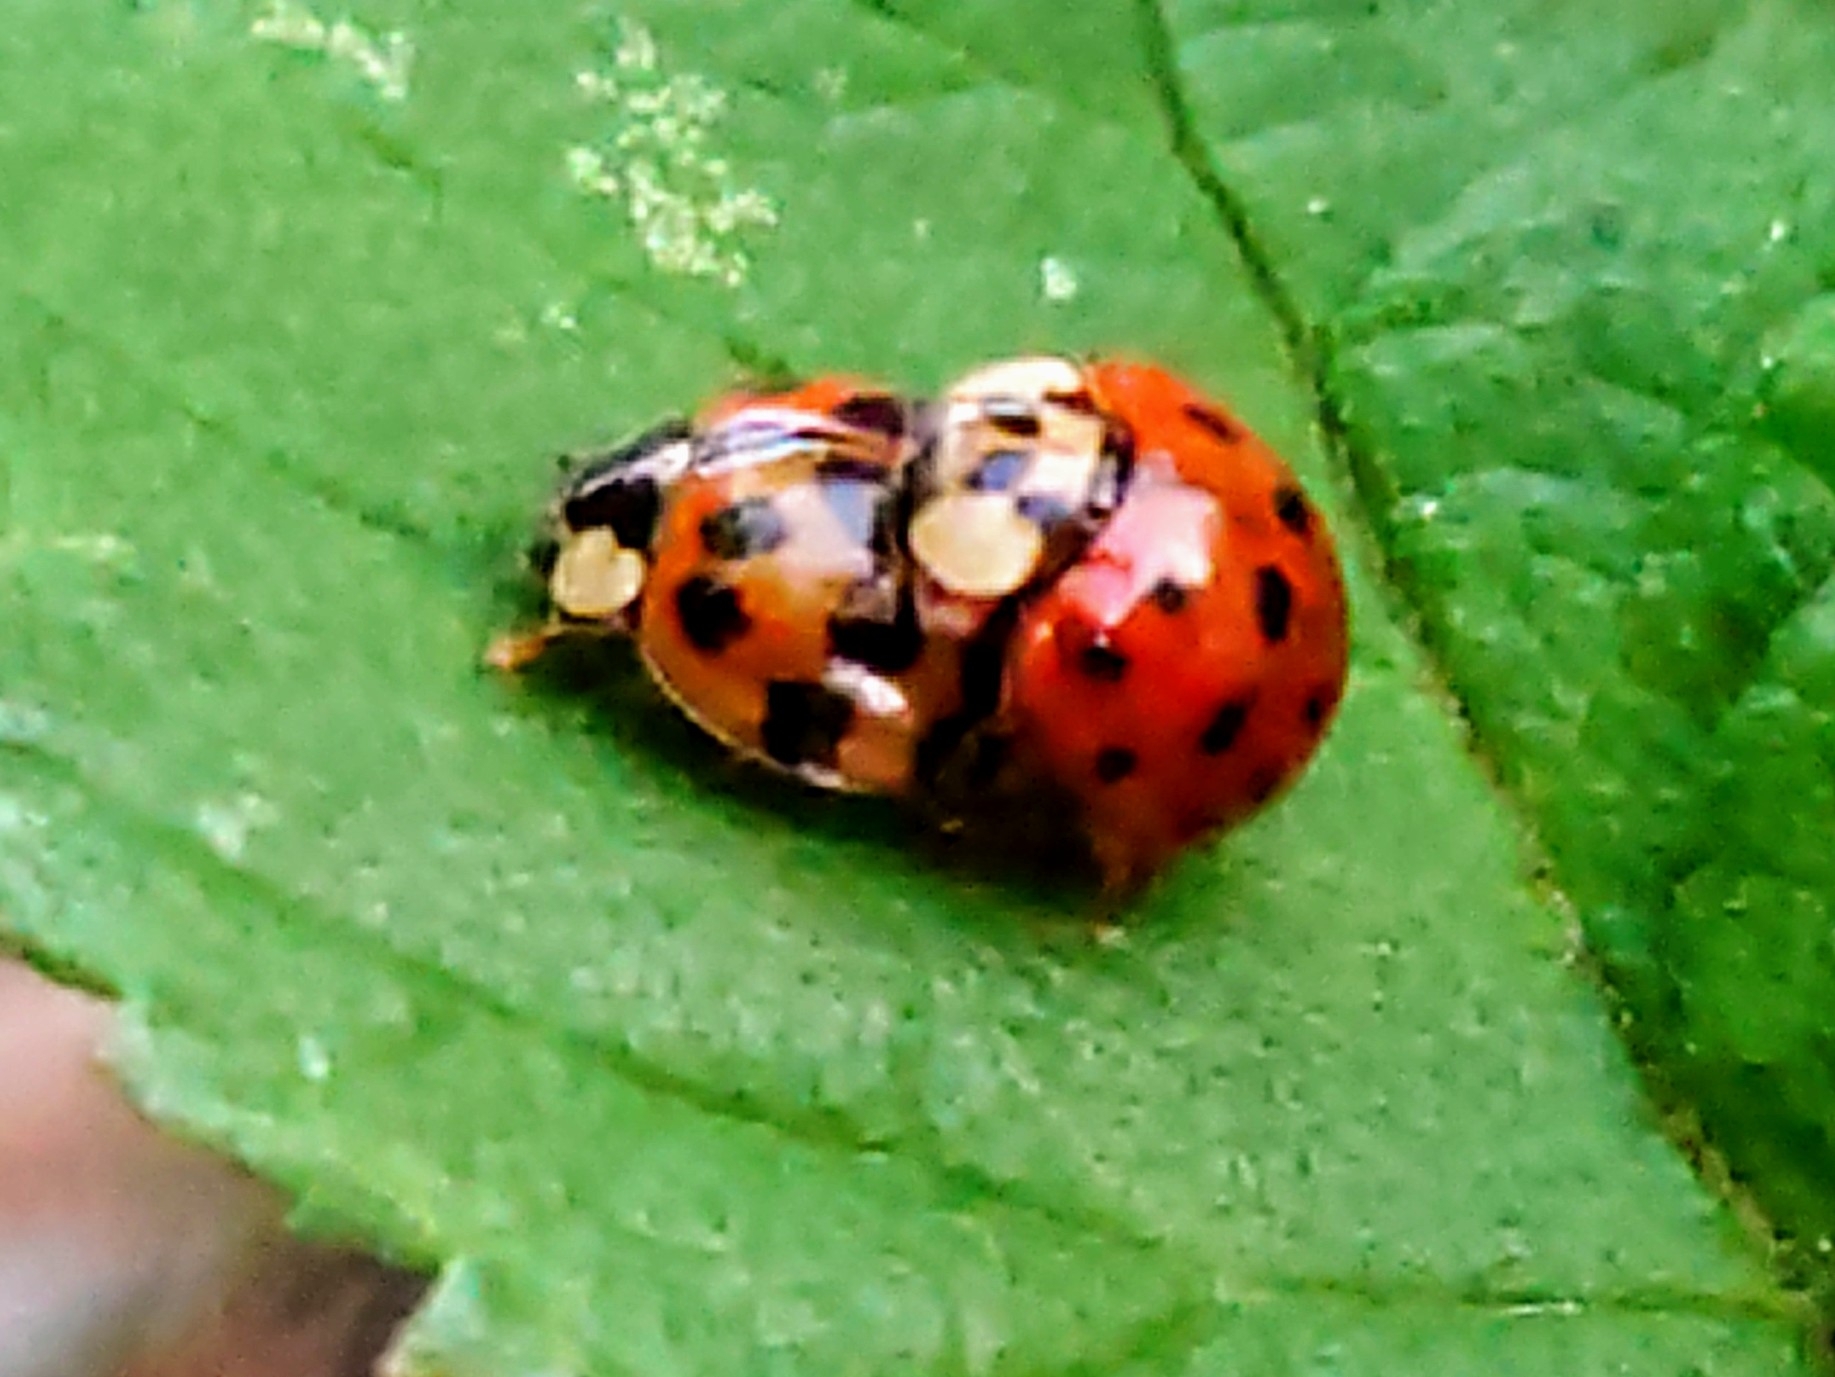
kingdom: Animalia
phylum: Arthropoda
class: Insecta
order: Coleoptera
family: Coccinellidae
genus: Harmonia
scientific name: Harmonia axyridis
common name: Harlequin ladybird
